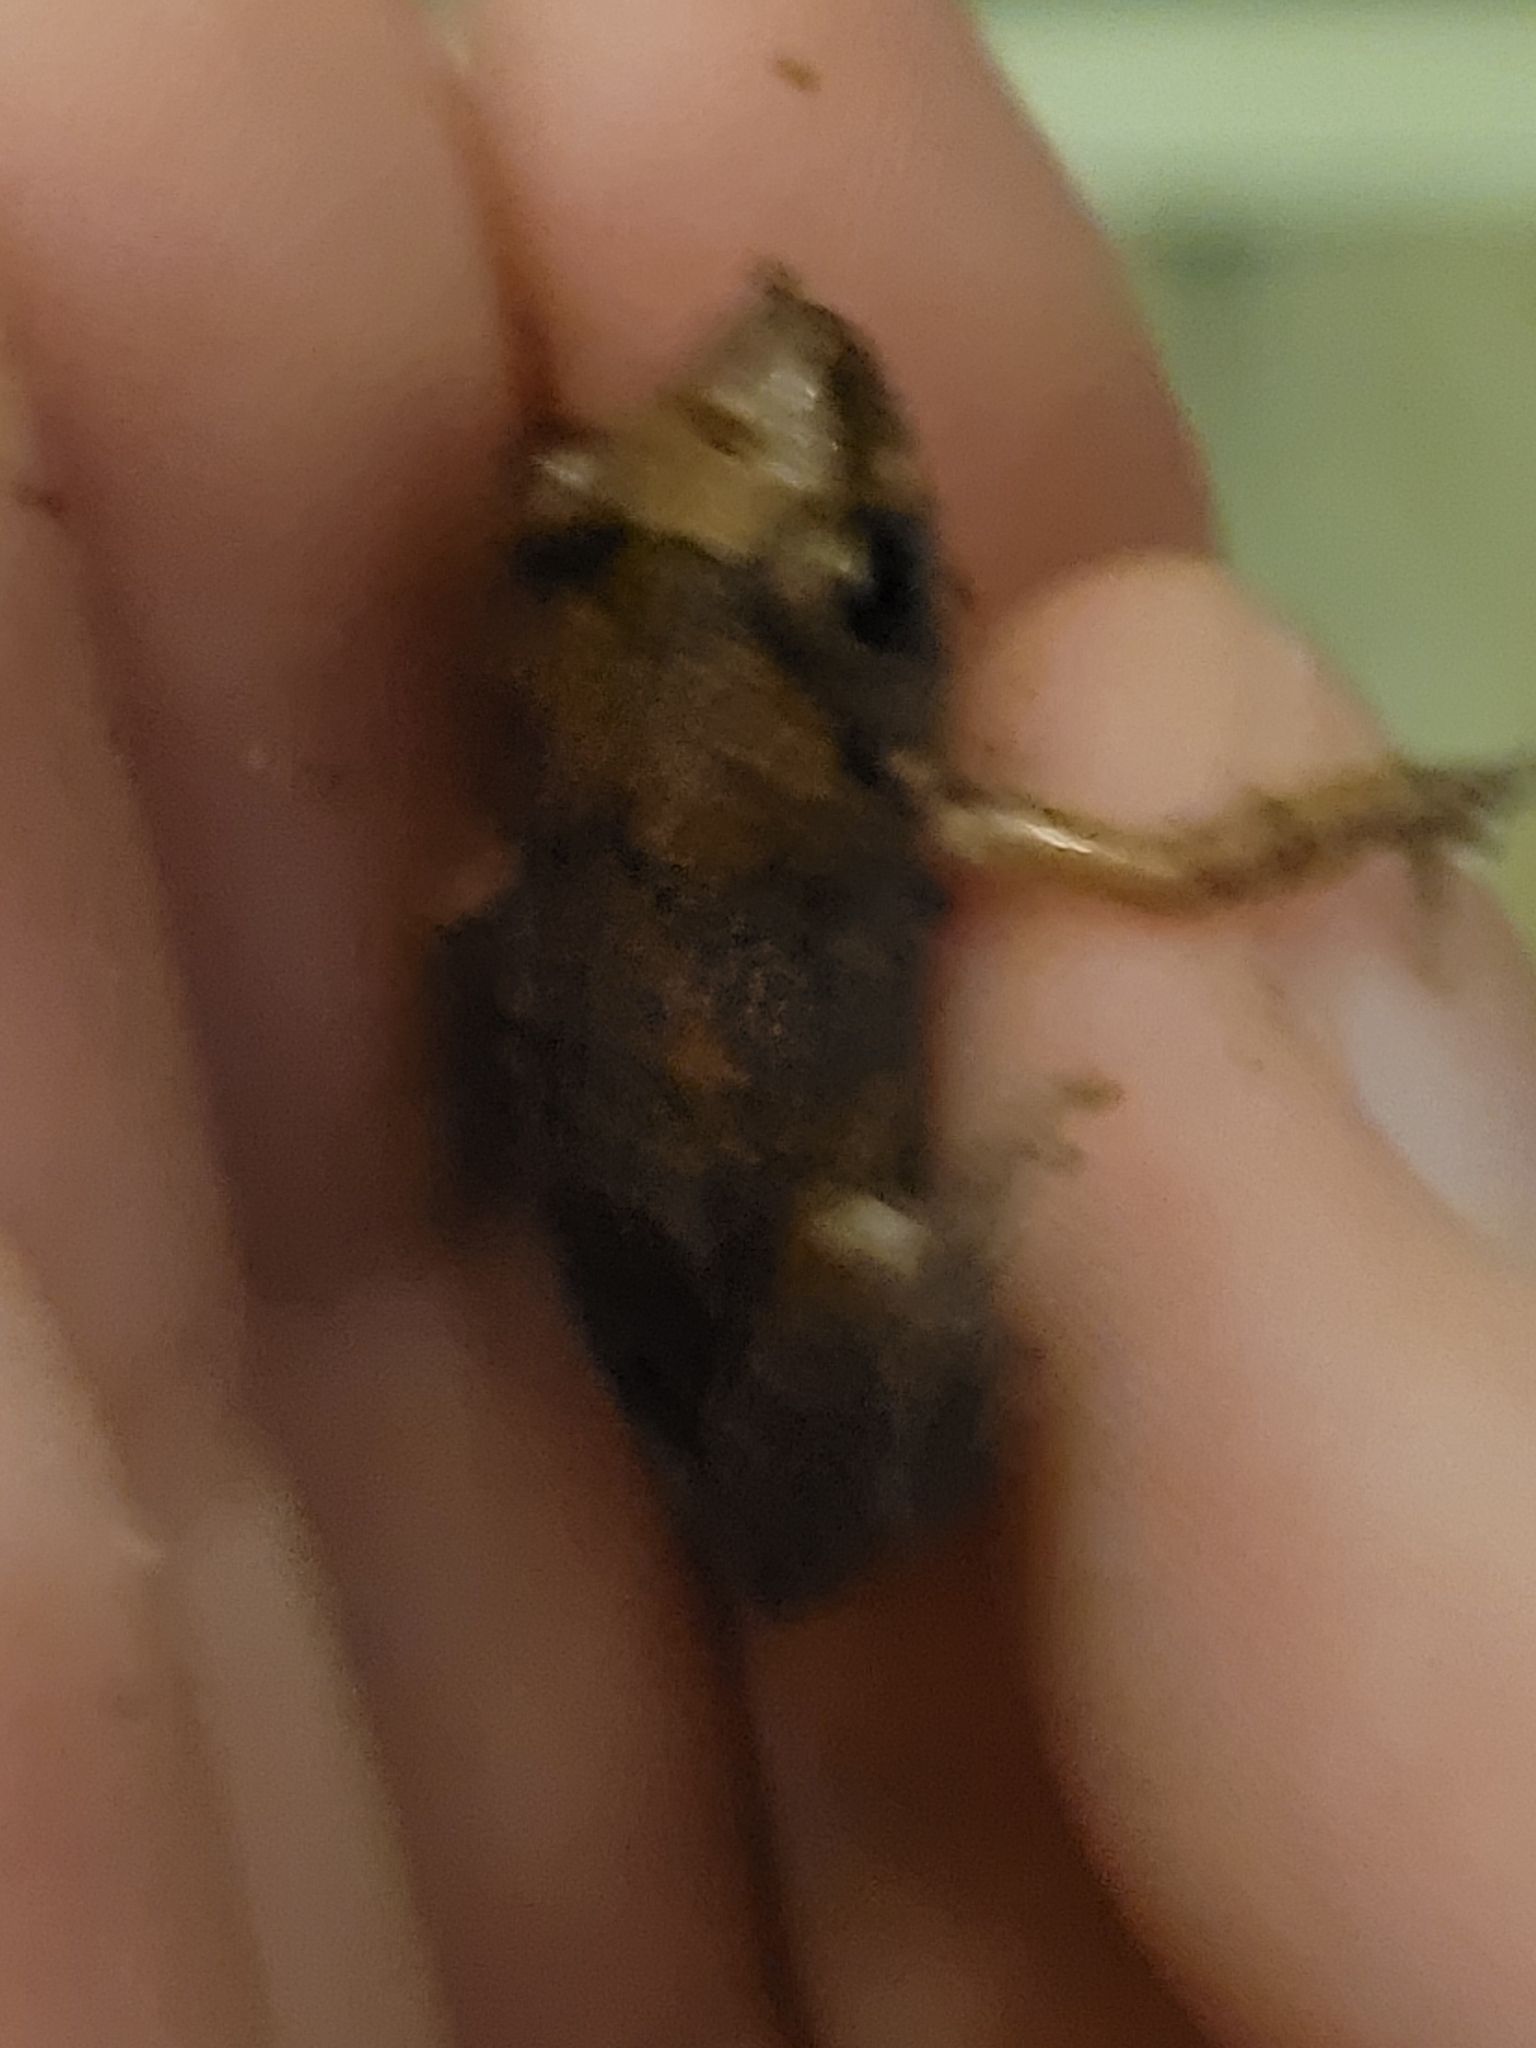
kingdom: Animalia
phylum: Chordata
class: Amphibia
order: Anura
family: Eleutherodactylidae
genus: Eleutherodactylus
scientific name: Eleutherodactylus planirostris
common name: Greenhouse frog
